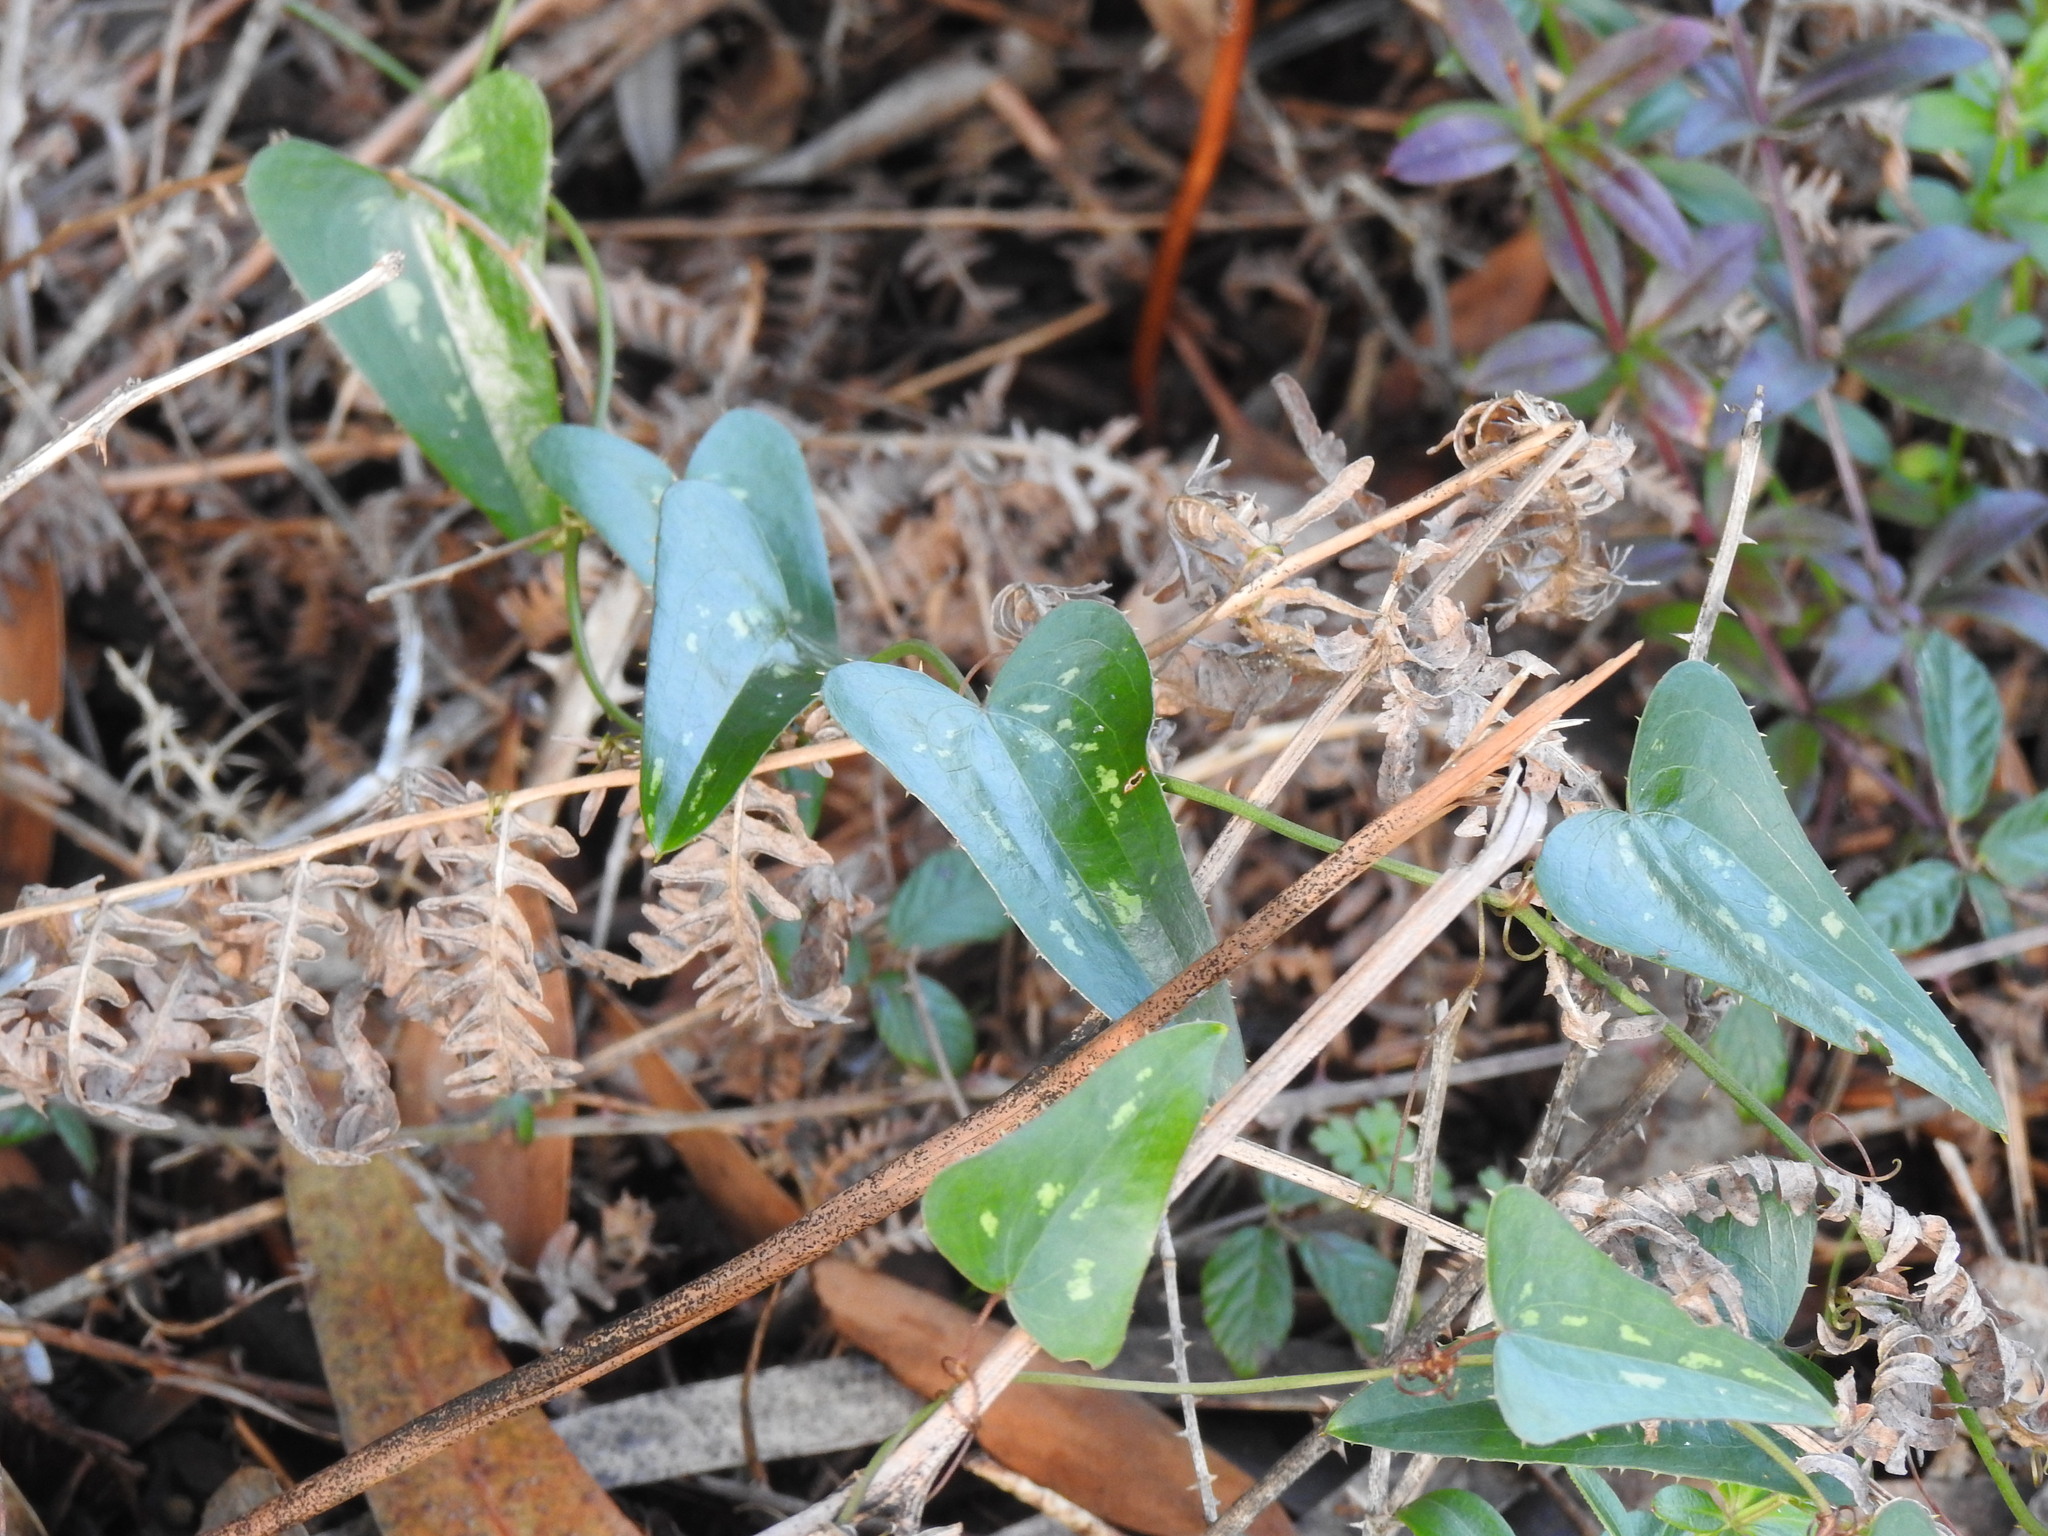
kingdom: Plantae
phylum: Tracheophyta
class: Liliopsida
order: Liliales
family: Smilacaceae
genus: Smilax
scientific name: Smilax aspera
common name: Common smilax
